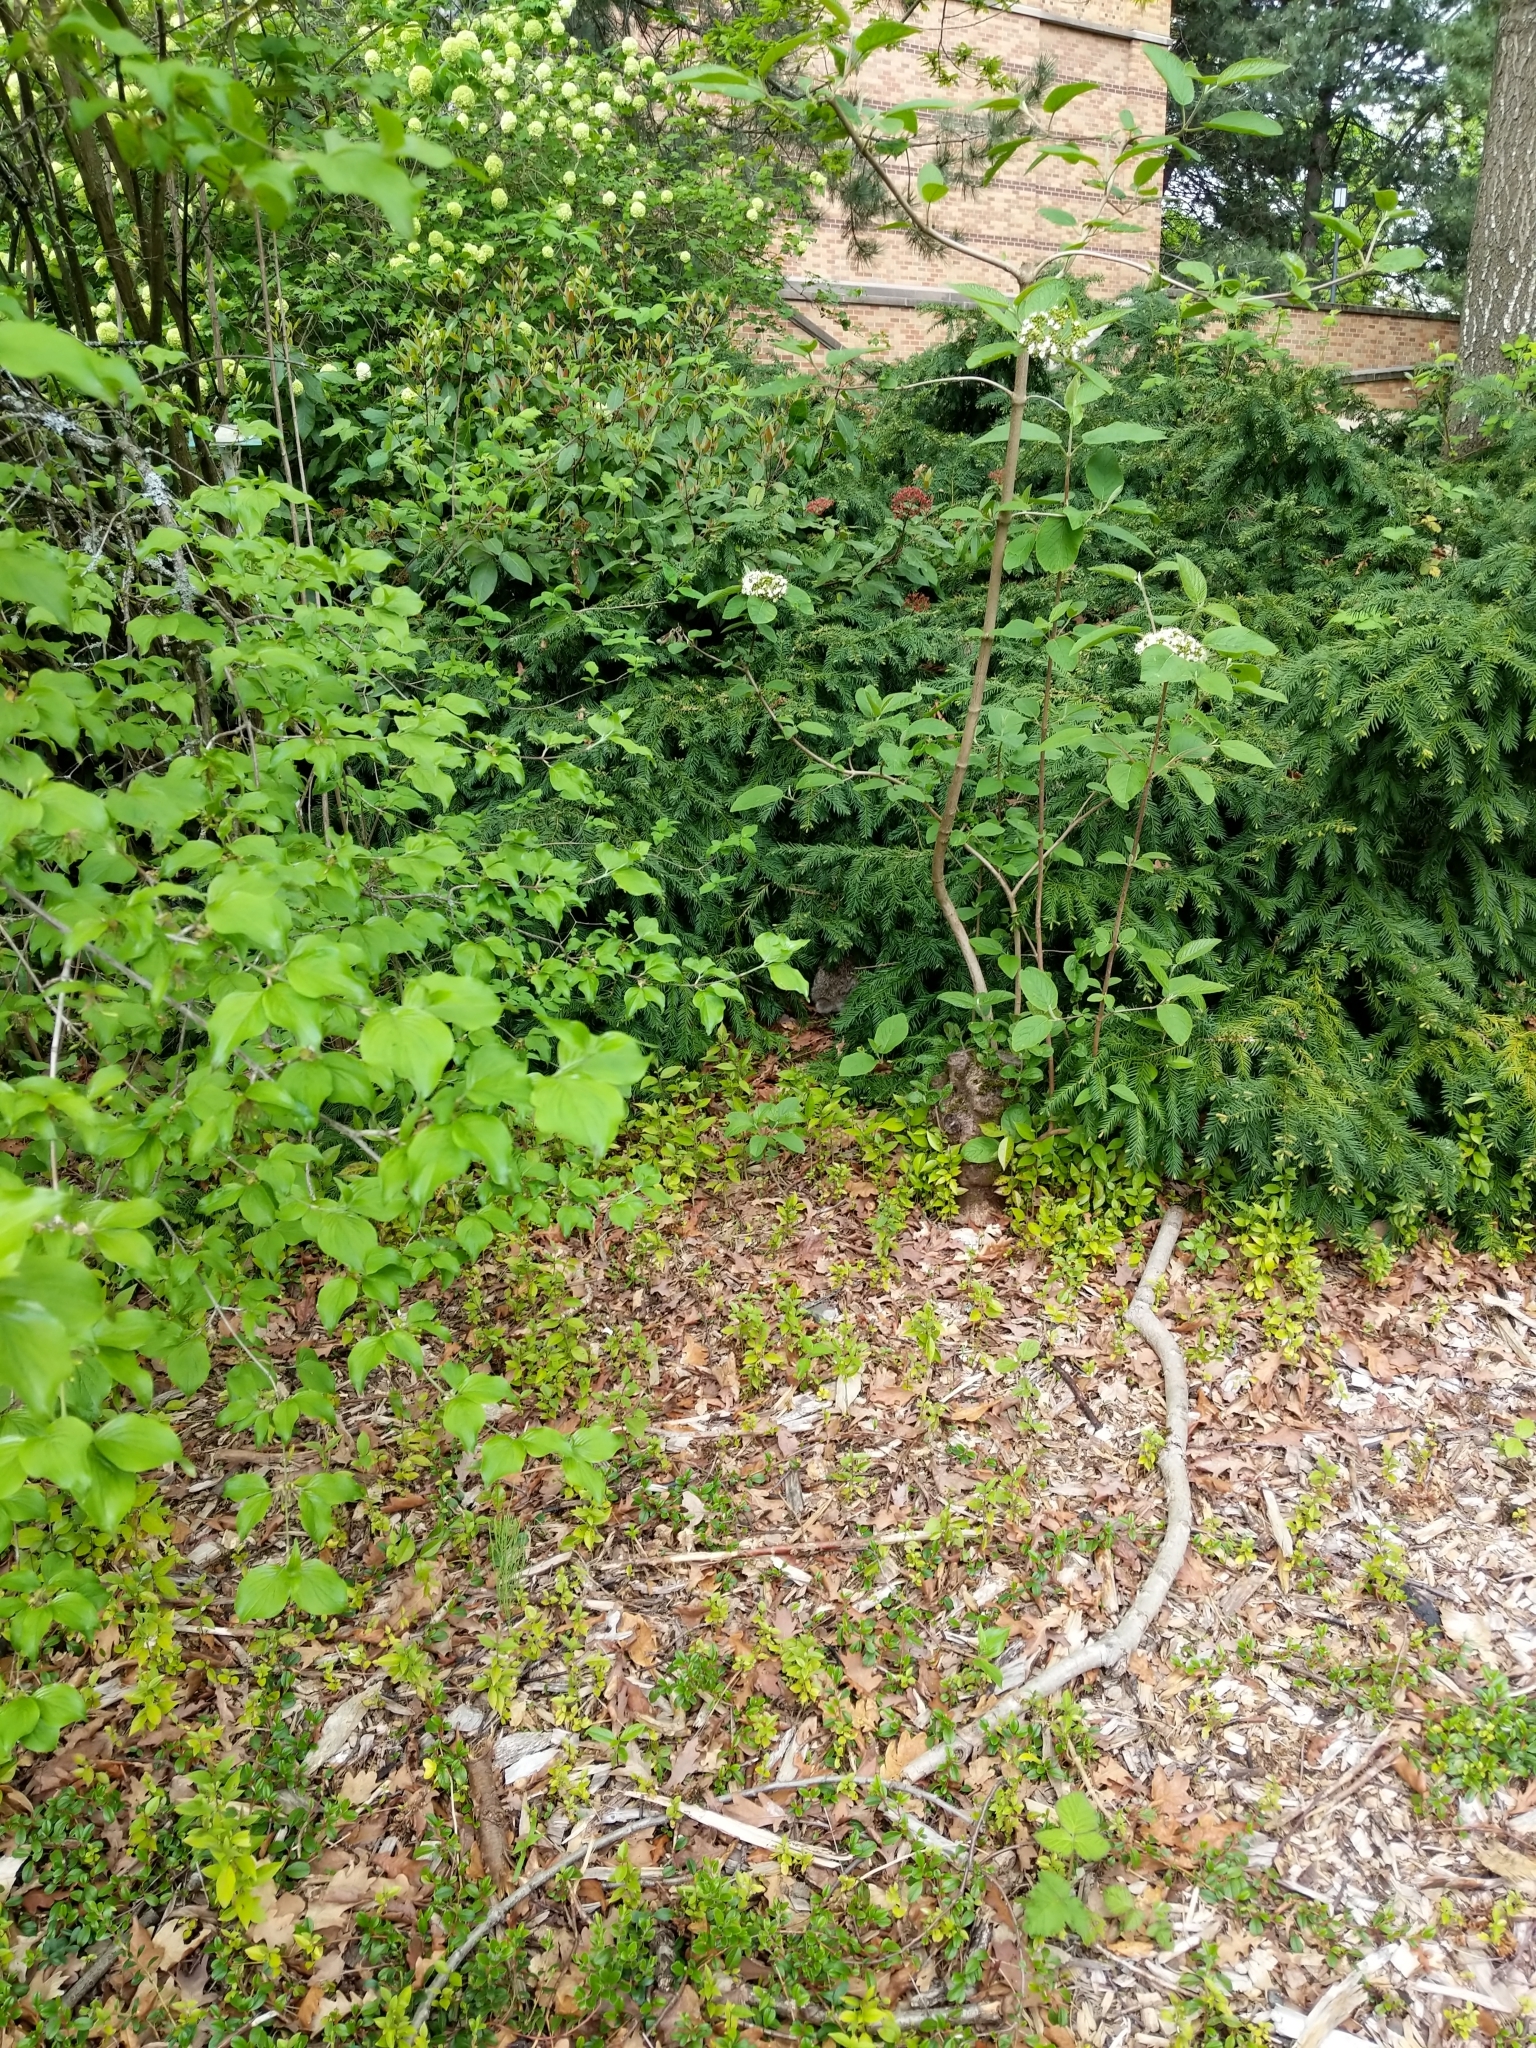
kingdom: Animalia
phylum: Chordata
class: Mammalia
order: Lagomorpha
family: Leporidae
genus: Sylvilagus
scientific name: Sylvilagus floridanus
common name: Eastern cottontail
